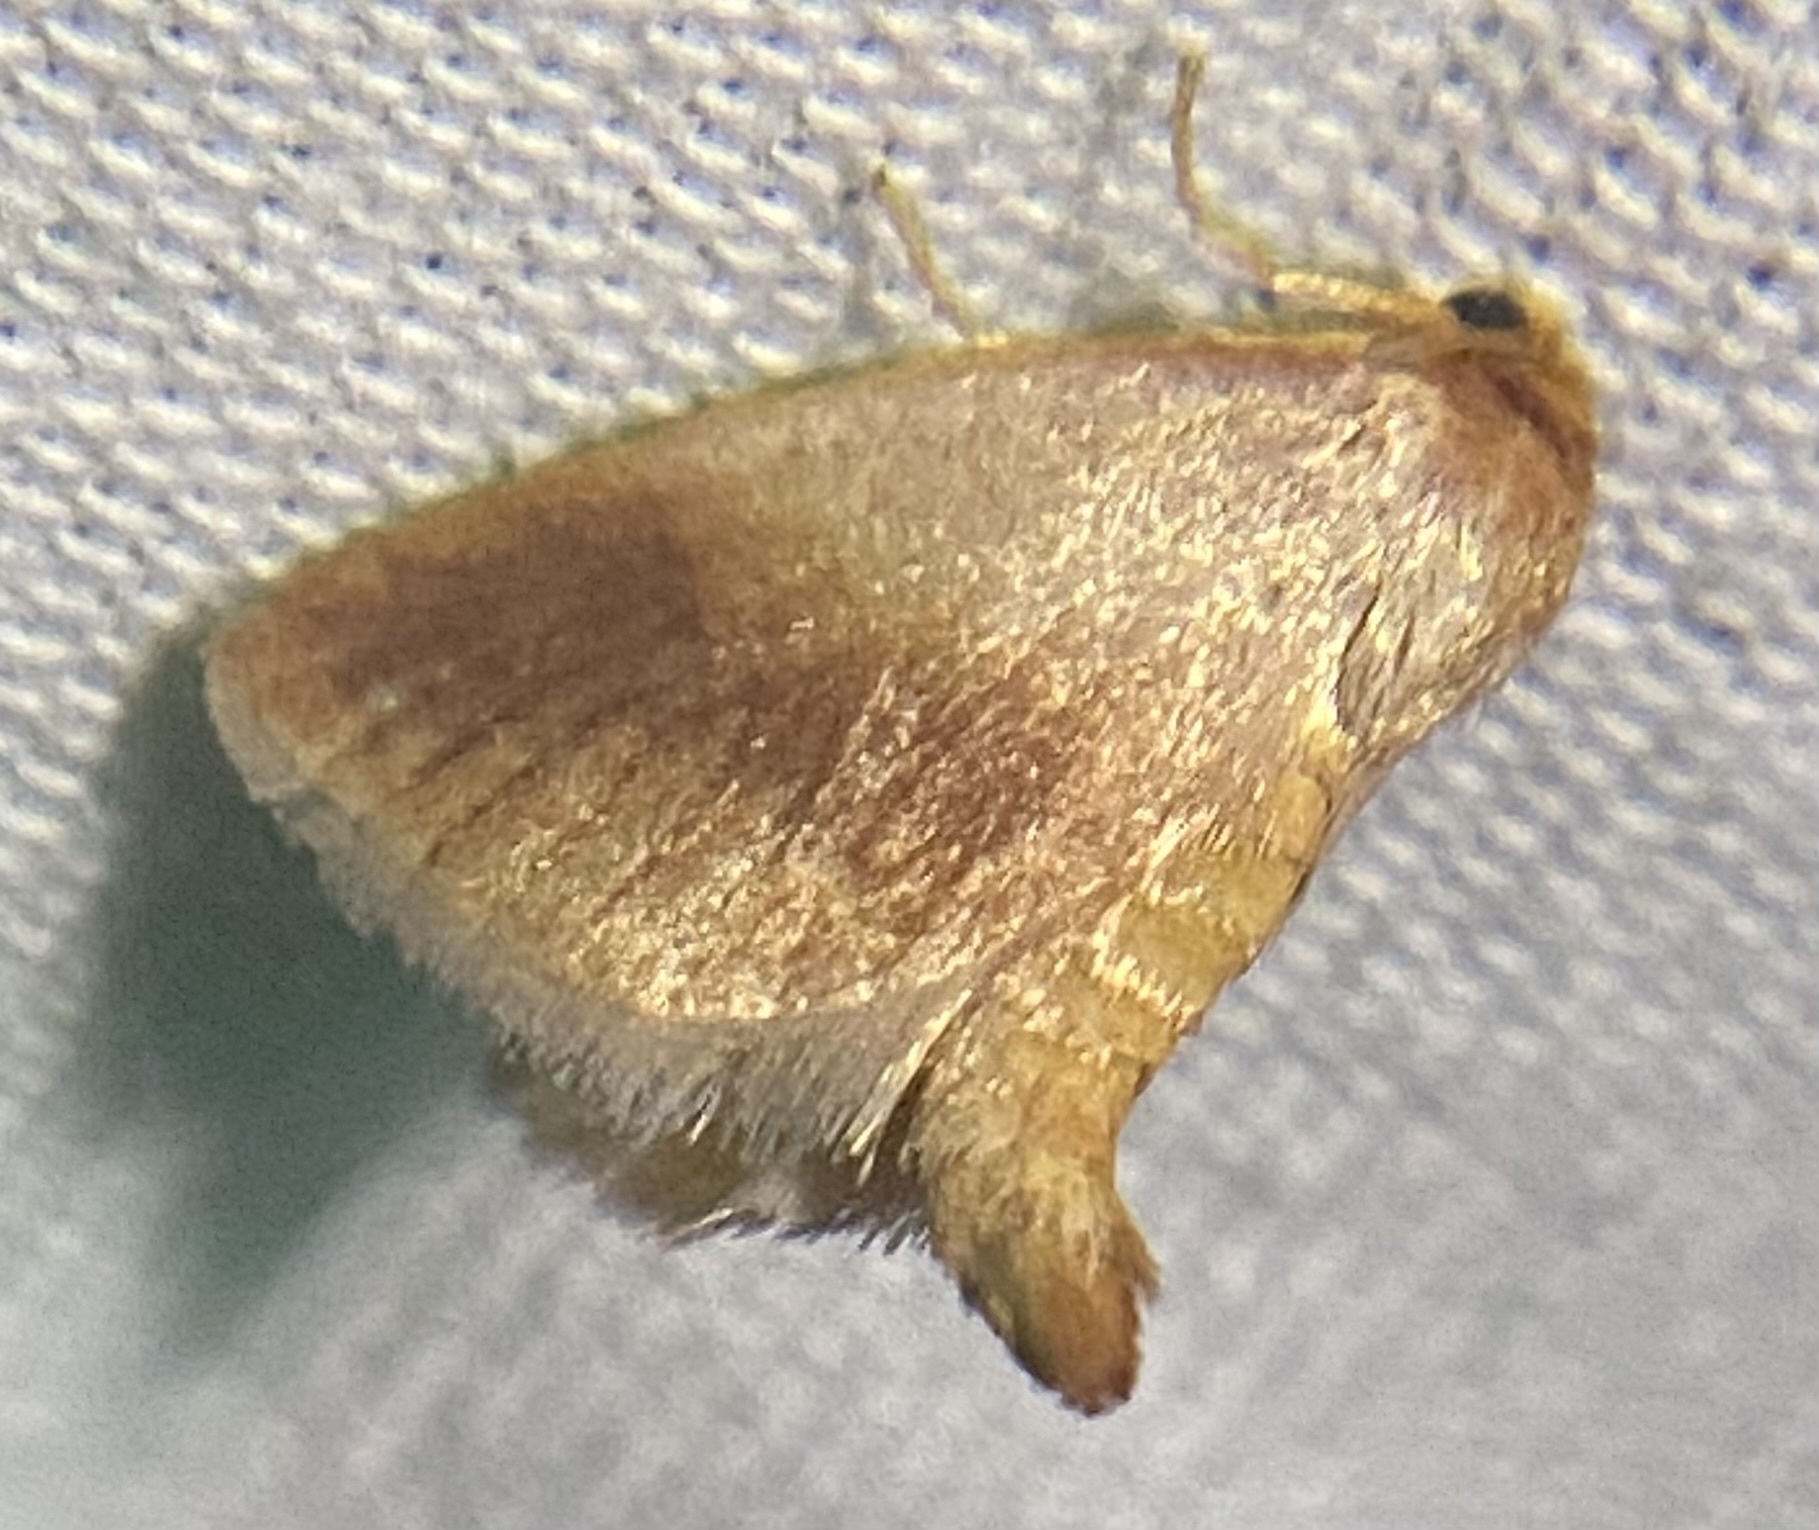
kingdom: Animalia
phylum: Arthropoda
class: Insecta
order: Lepidoptera
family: Limacodidae
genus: Tortricidia
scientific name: Tortricidia testacea
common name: Early button slug moth
